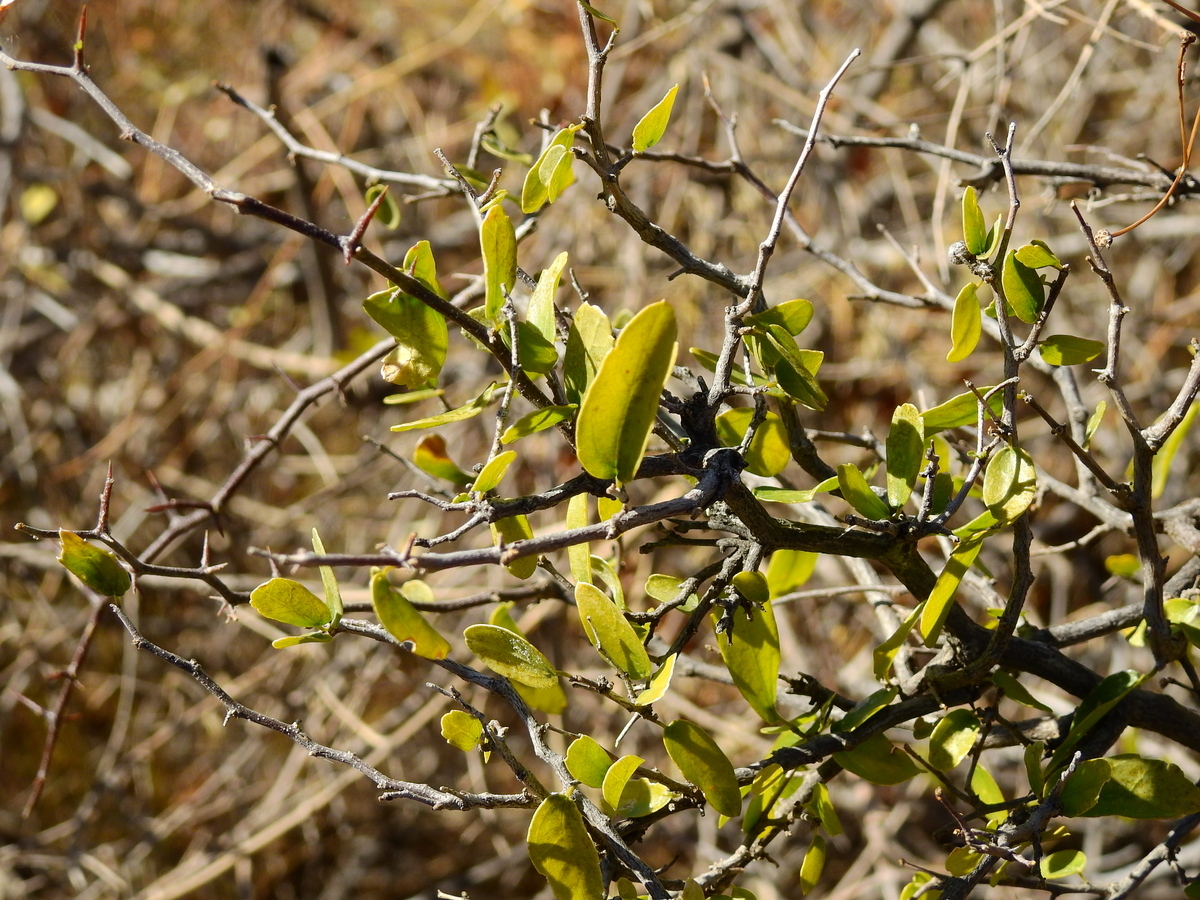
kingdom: Plantae
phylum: Tracheophyta
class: Magnoliopsida
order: Rosales
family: Cannabaceae
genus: Celtis
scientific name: Celtis tala
